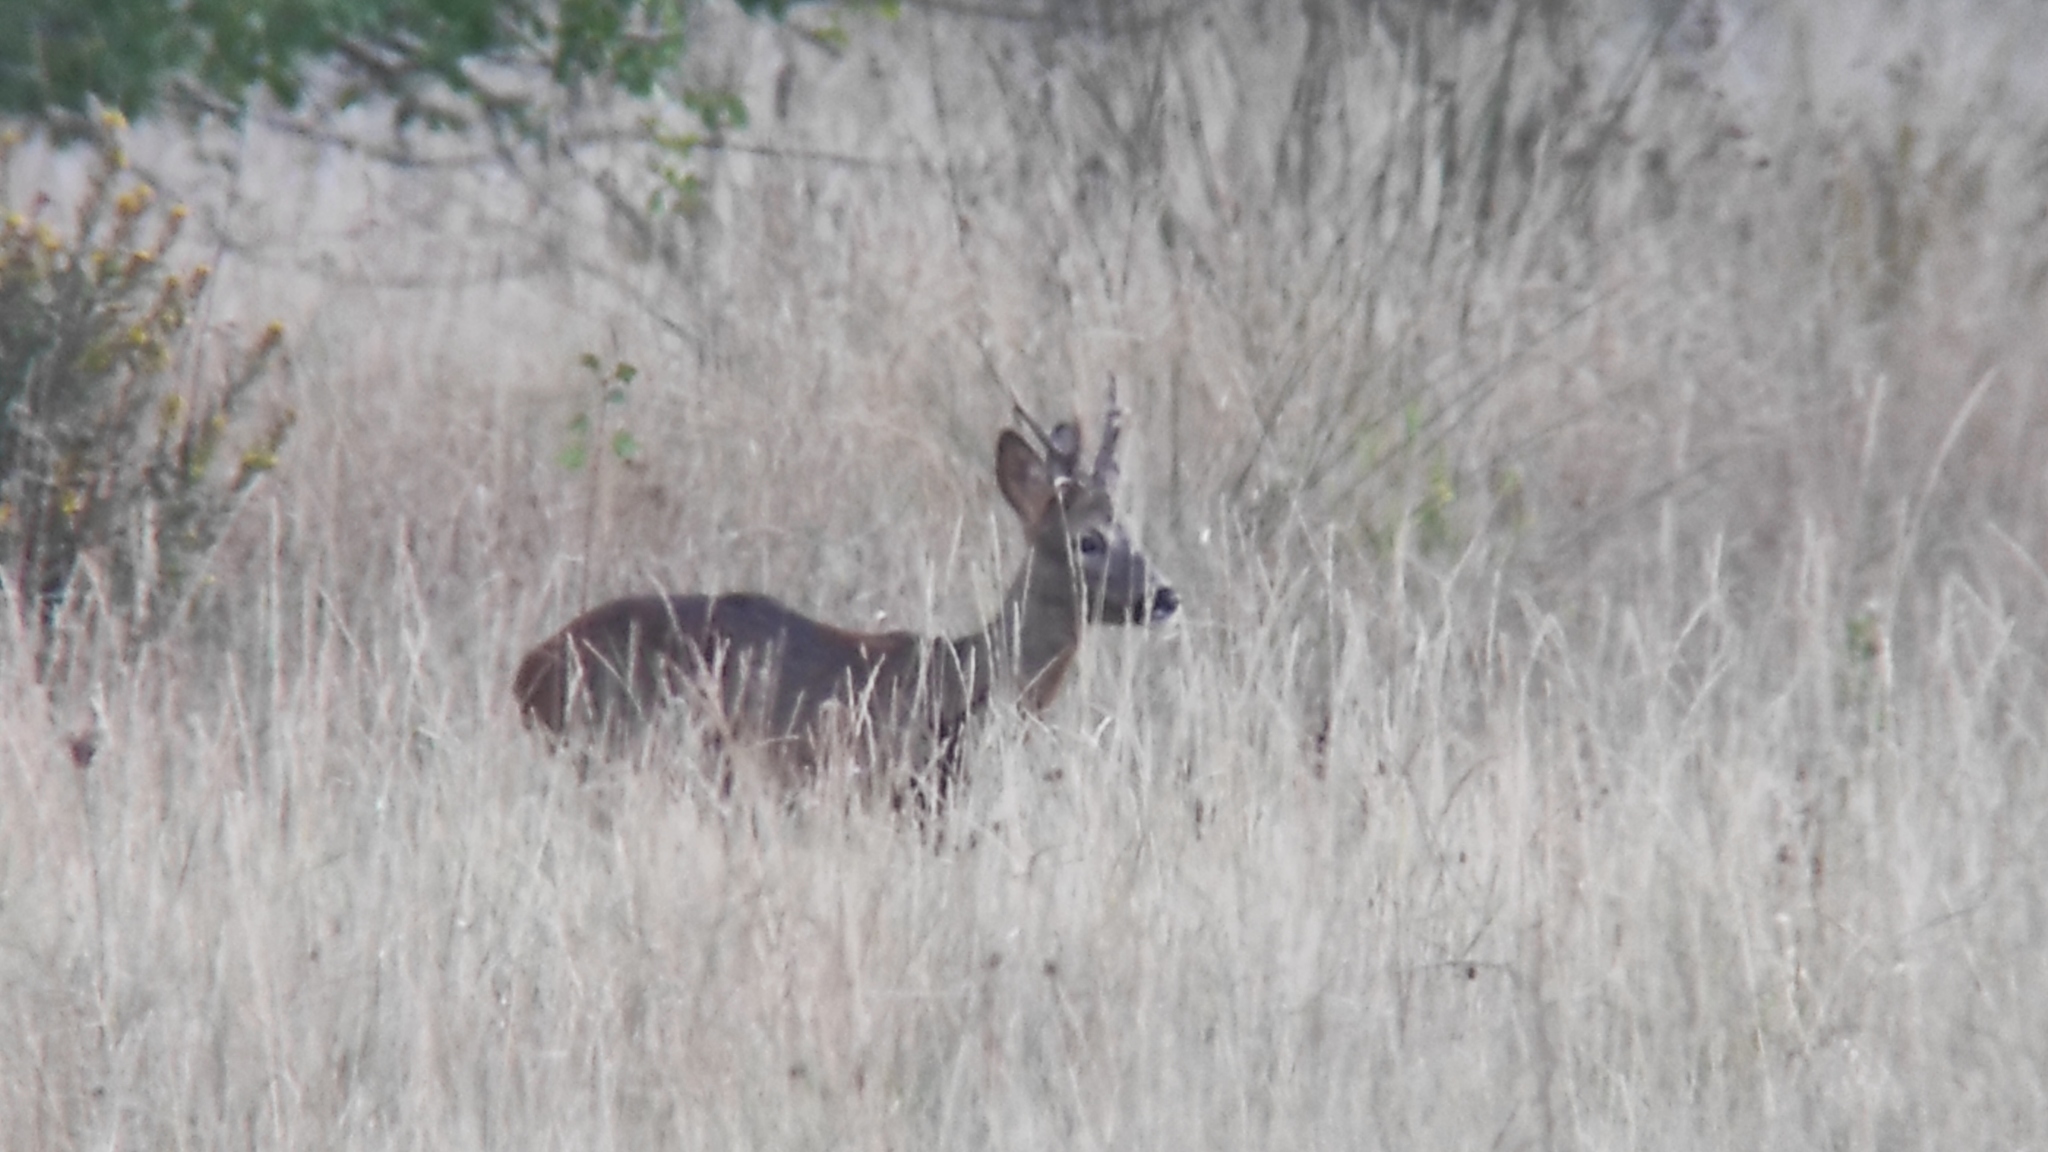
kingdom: Animalia
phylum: Chordata
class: Mammalia
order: Artiodactyla
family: Cervidae
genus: Capreolus
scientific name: Capreolus capreolus
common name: Western roe deer
